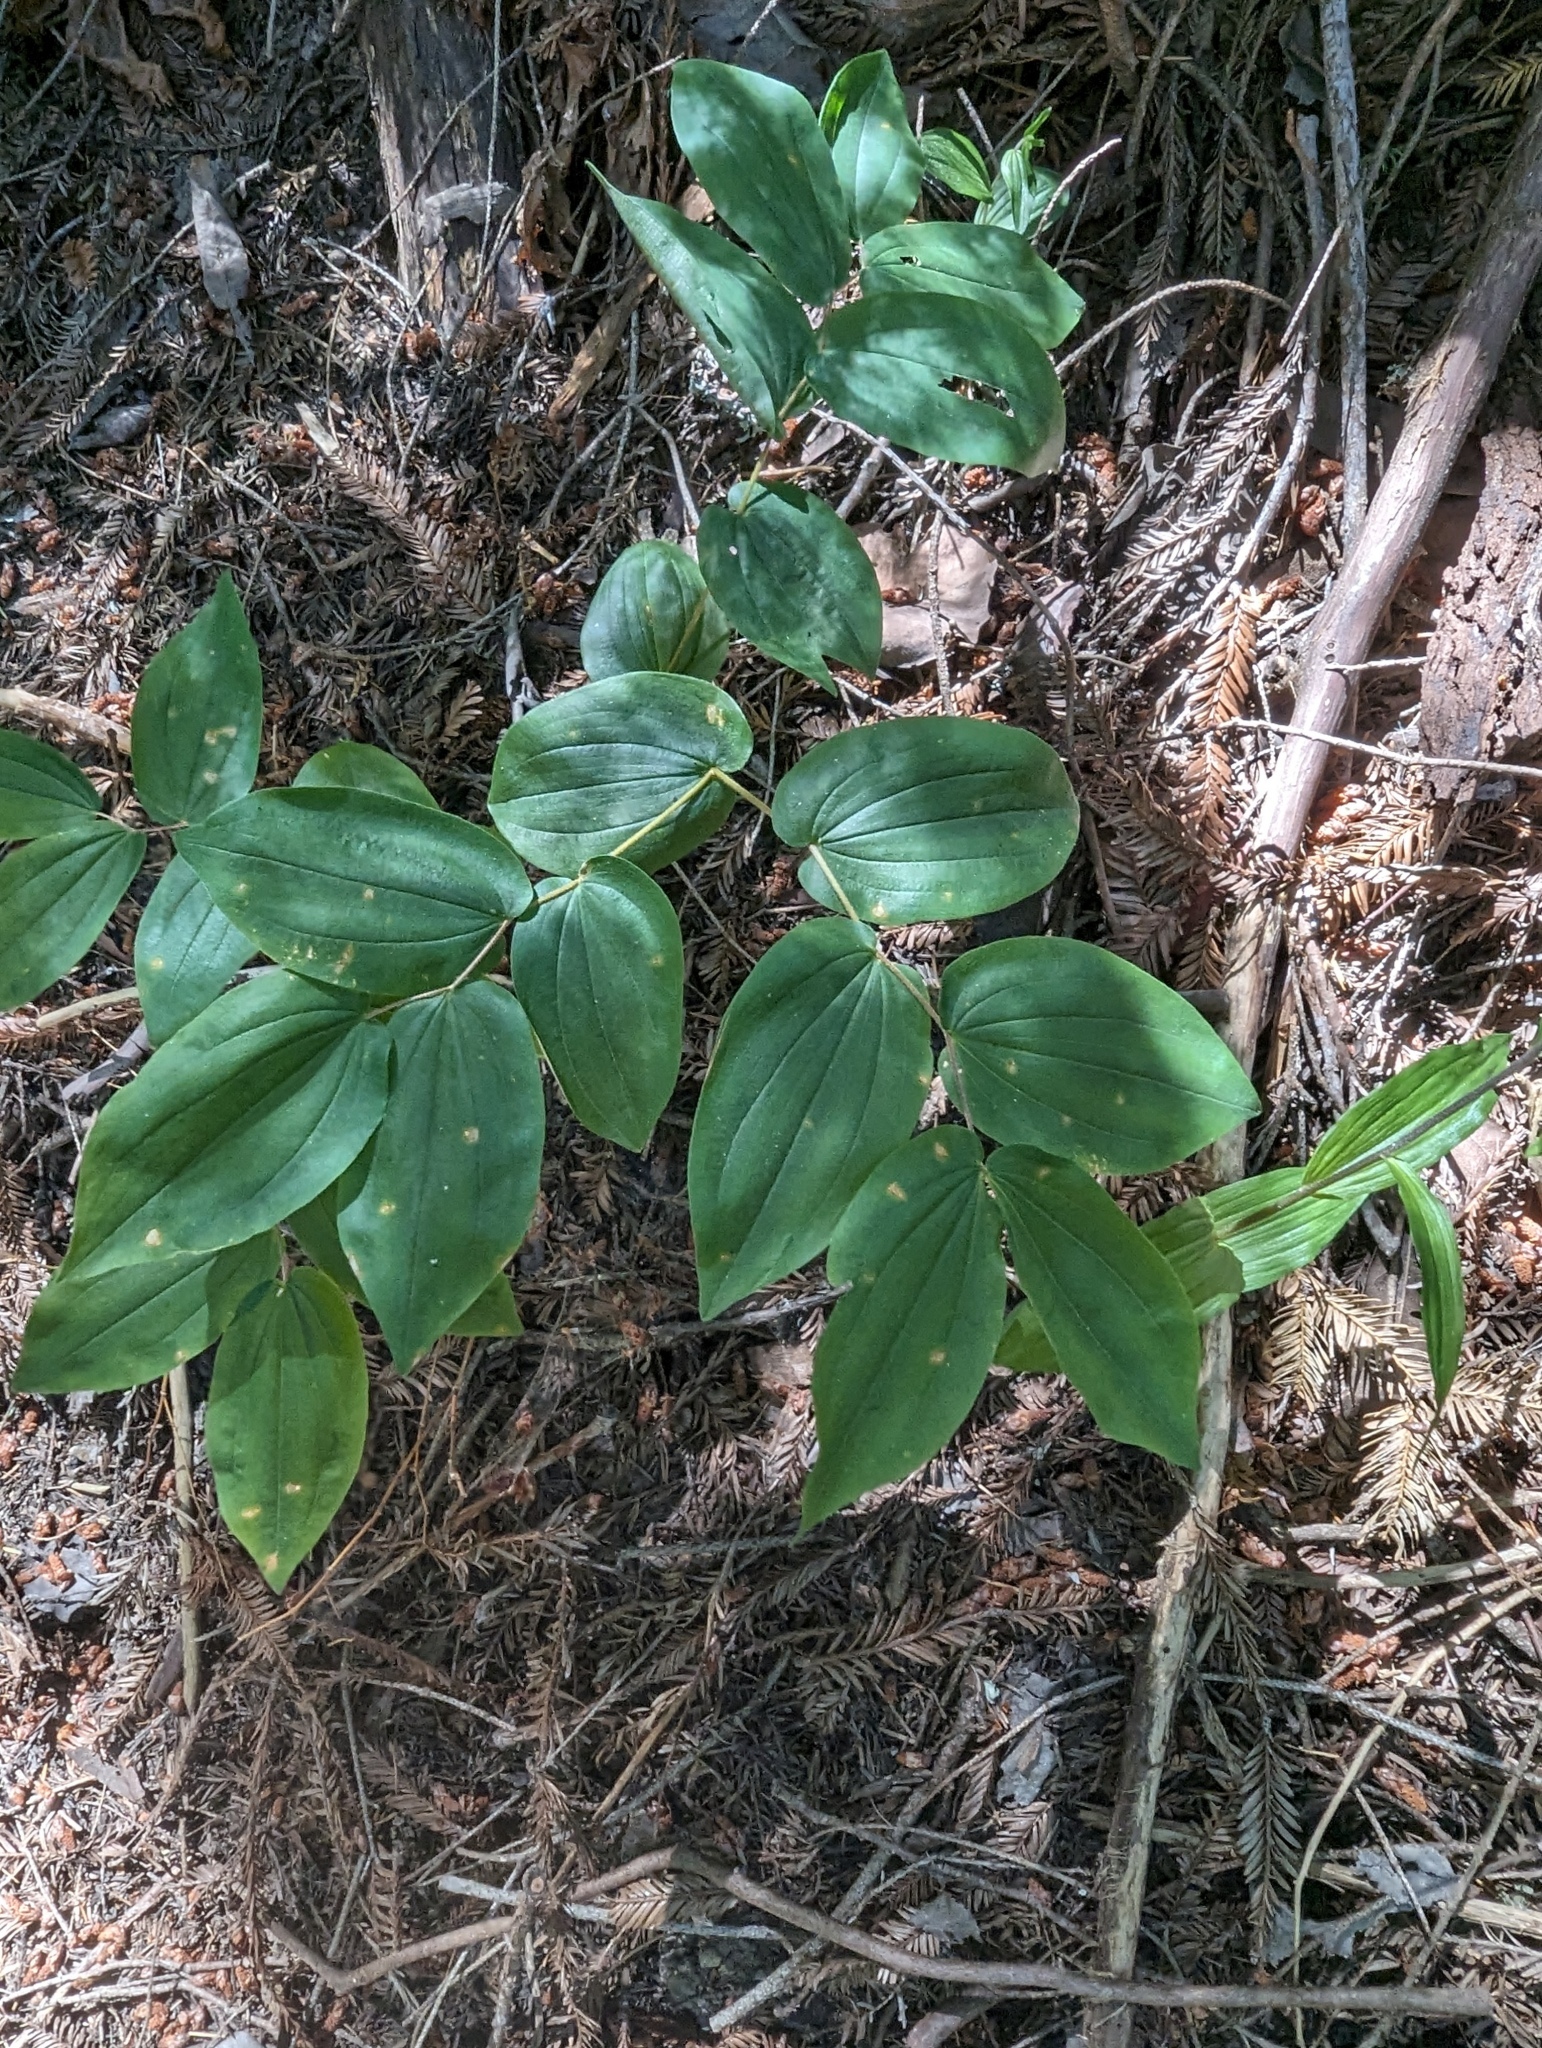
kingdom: Plantae
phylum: Tracheophyta
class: Liliopsida
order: Liliales
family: Liliaceae
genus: Prosartes
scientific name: Prosartes hookeri
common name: Fairy-bells
